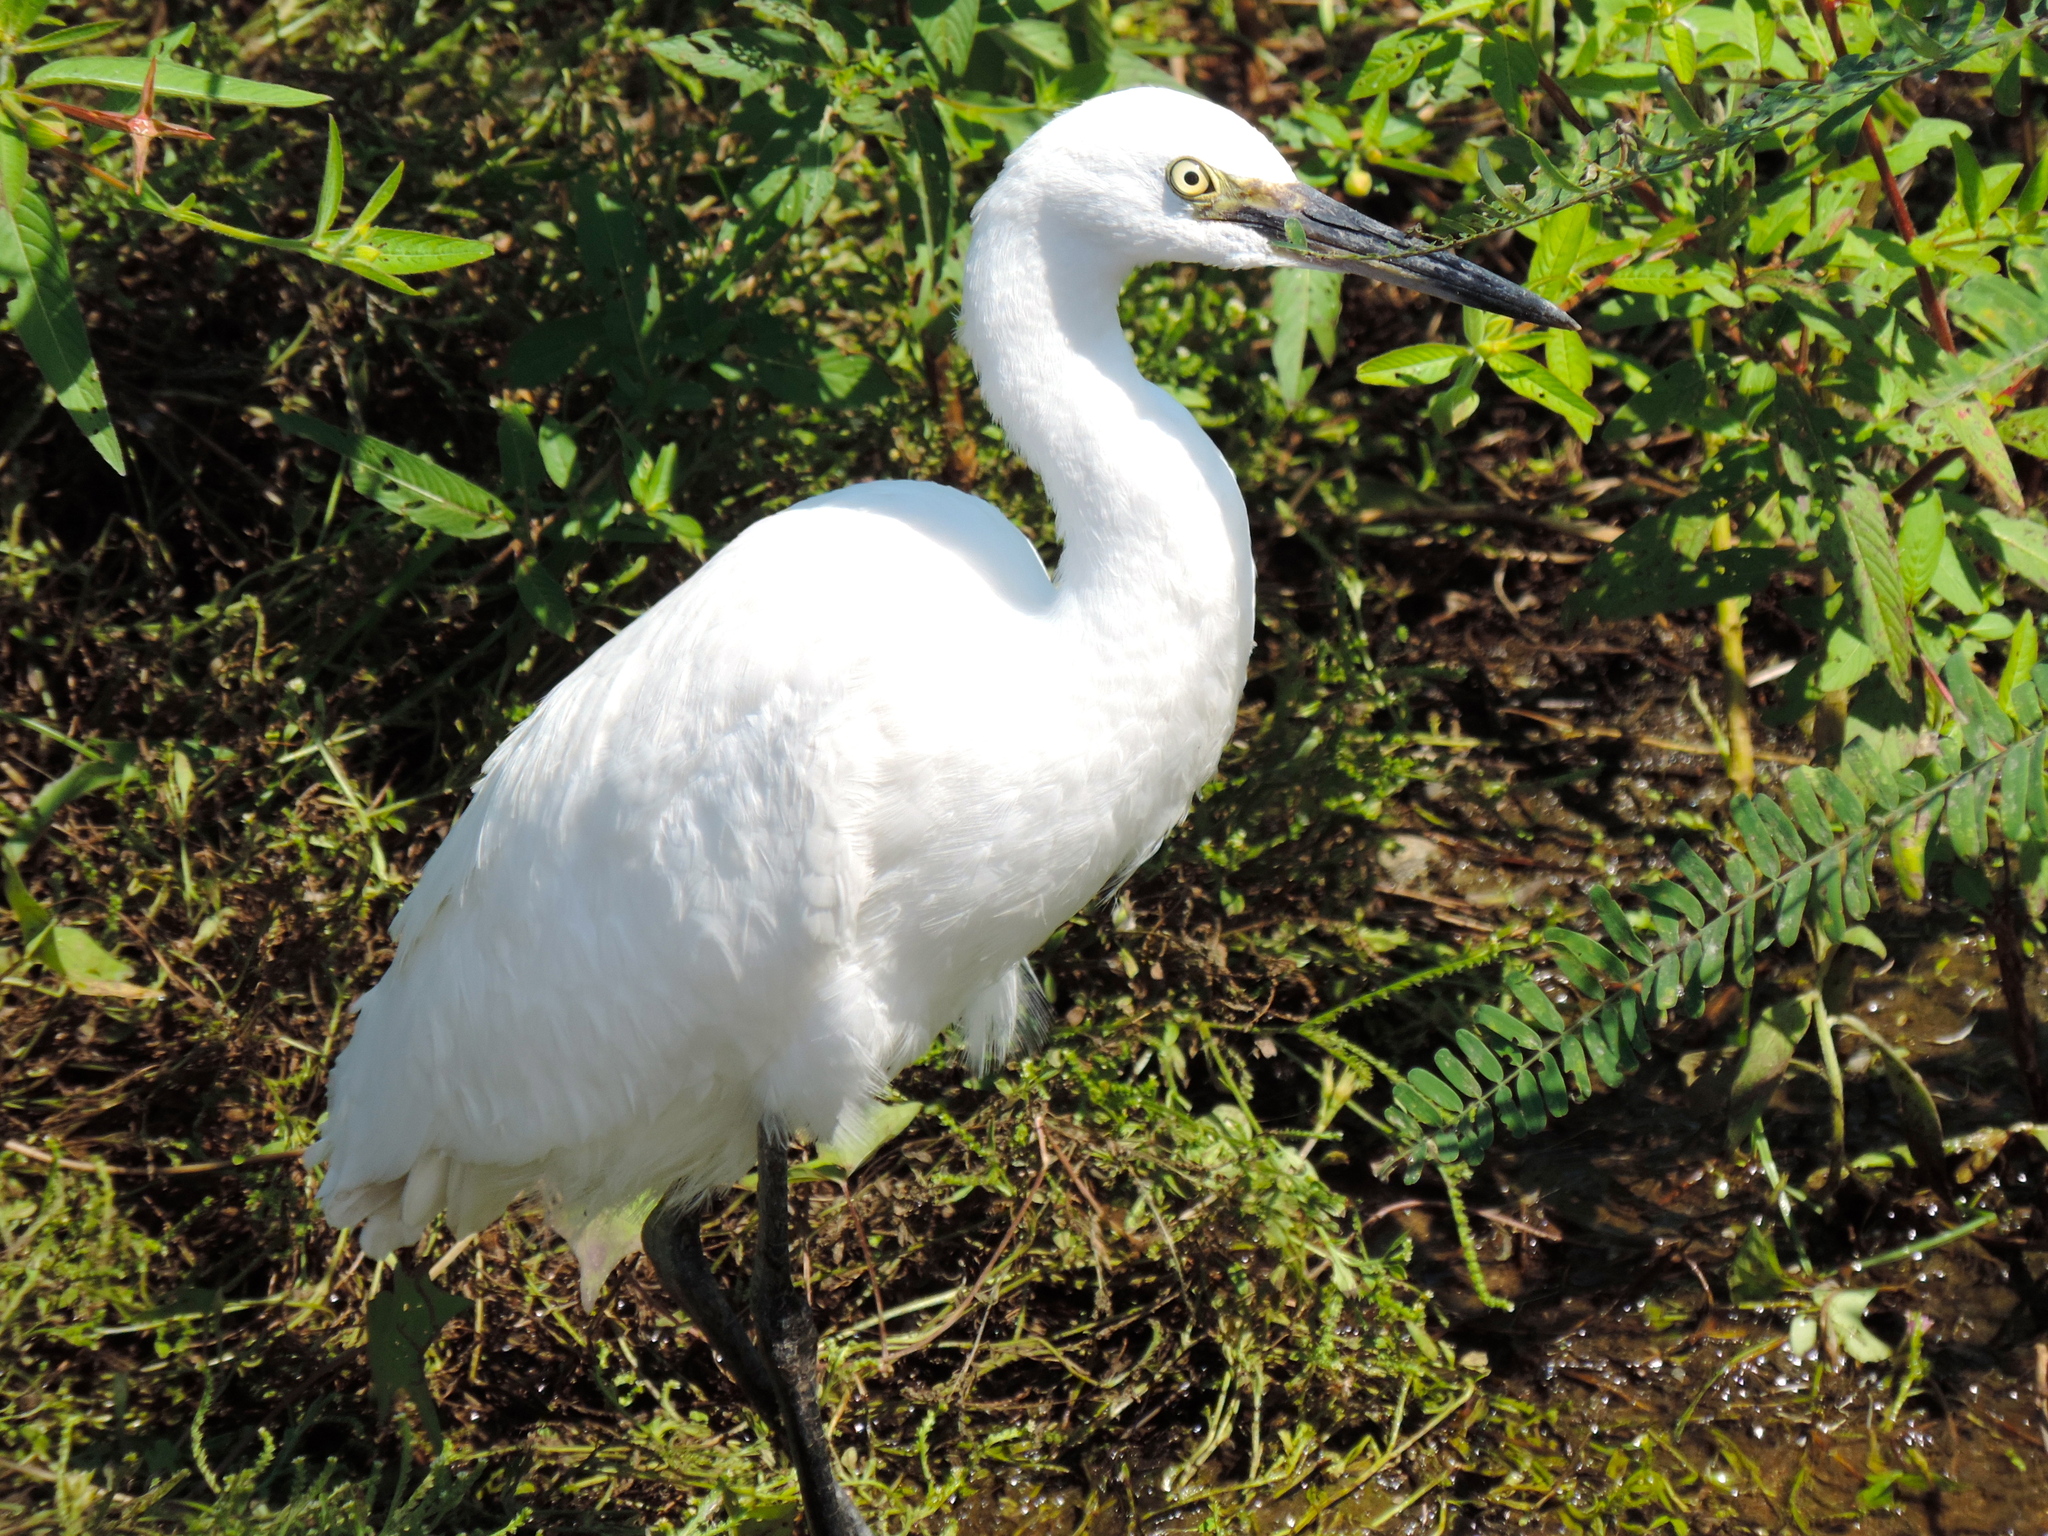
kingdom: Animalia
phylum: Chordata
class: Aves
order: Pelecaniformes
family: Ardeidae
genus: Ardea
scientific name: Ardea alba
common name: Great egret
